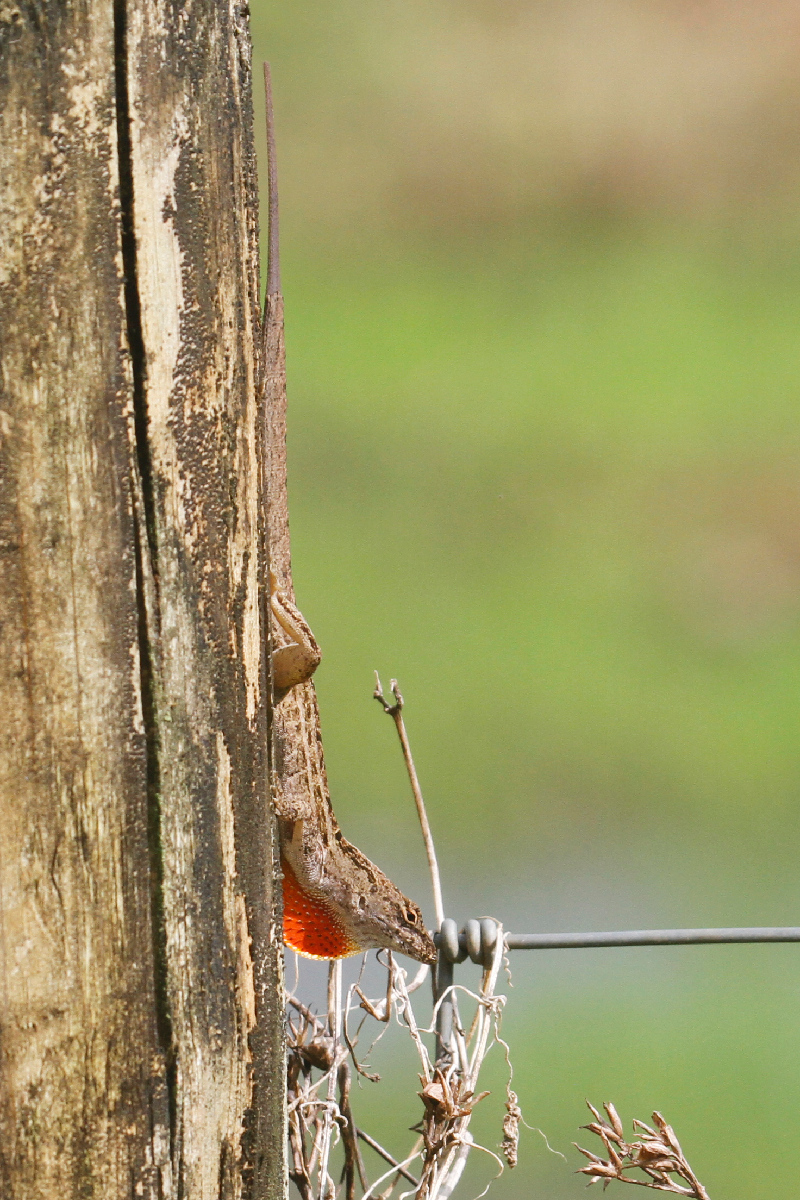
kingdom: Animalia
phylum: Chordata
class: Squamata
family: Dactyloidae
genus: Anolis
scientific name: Anolis sagrei
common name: Brown anole
